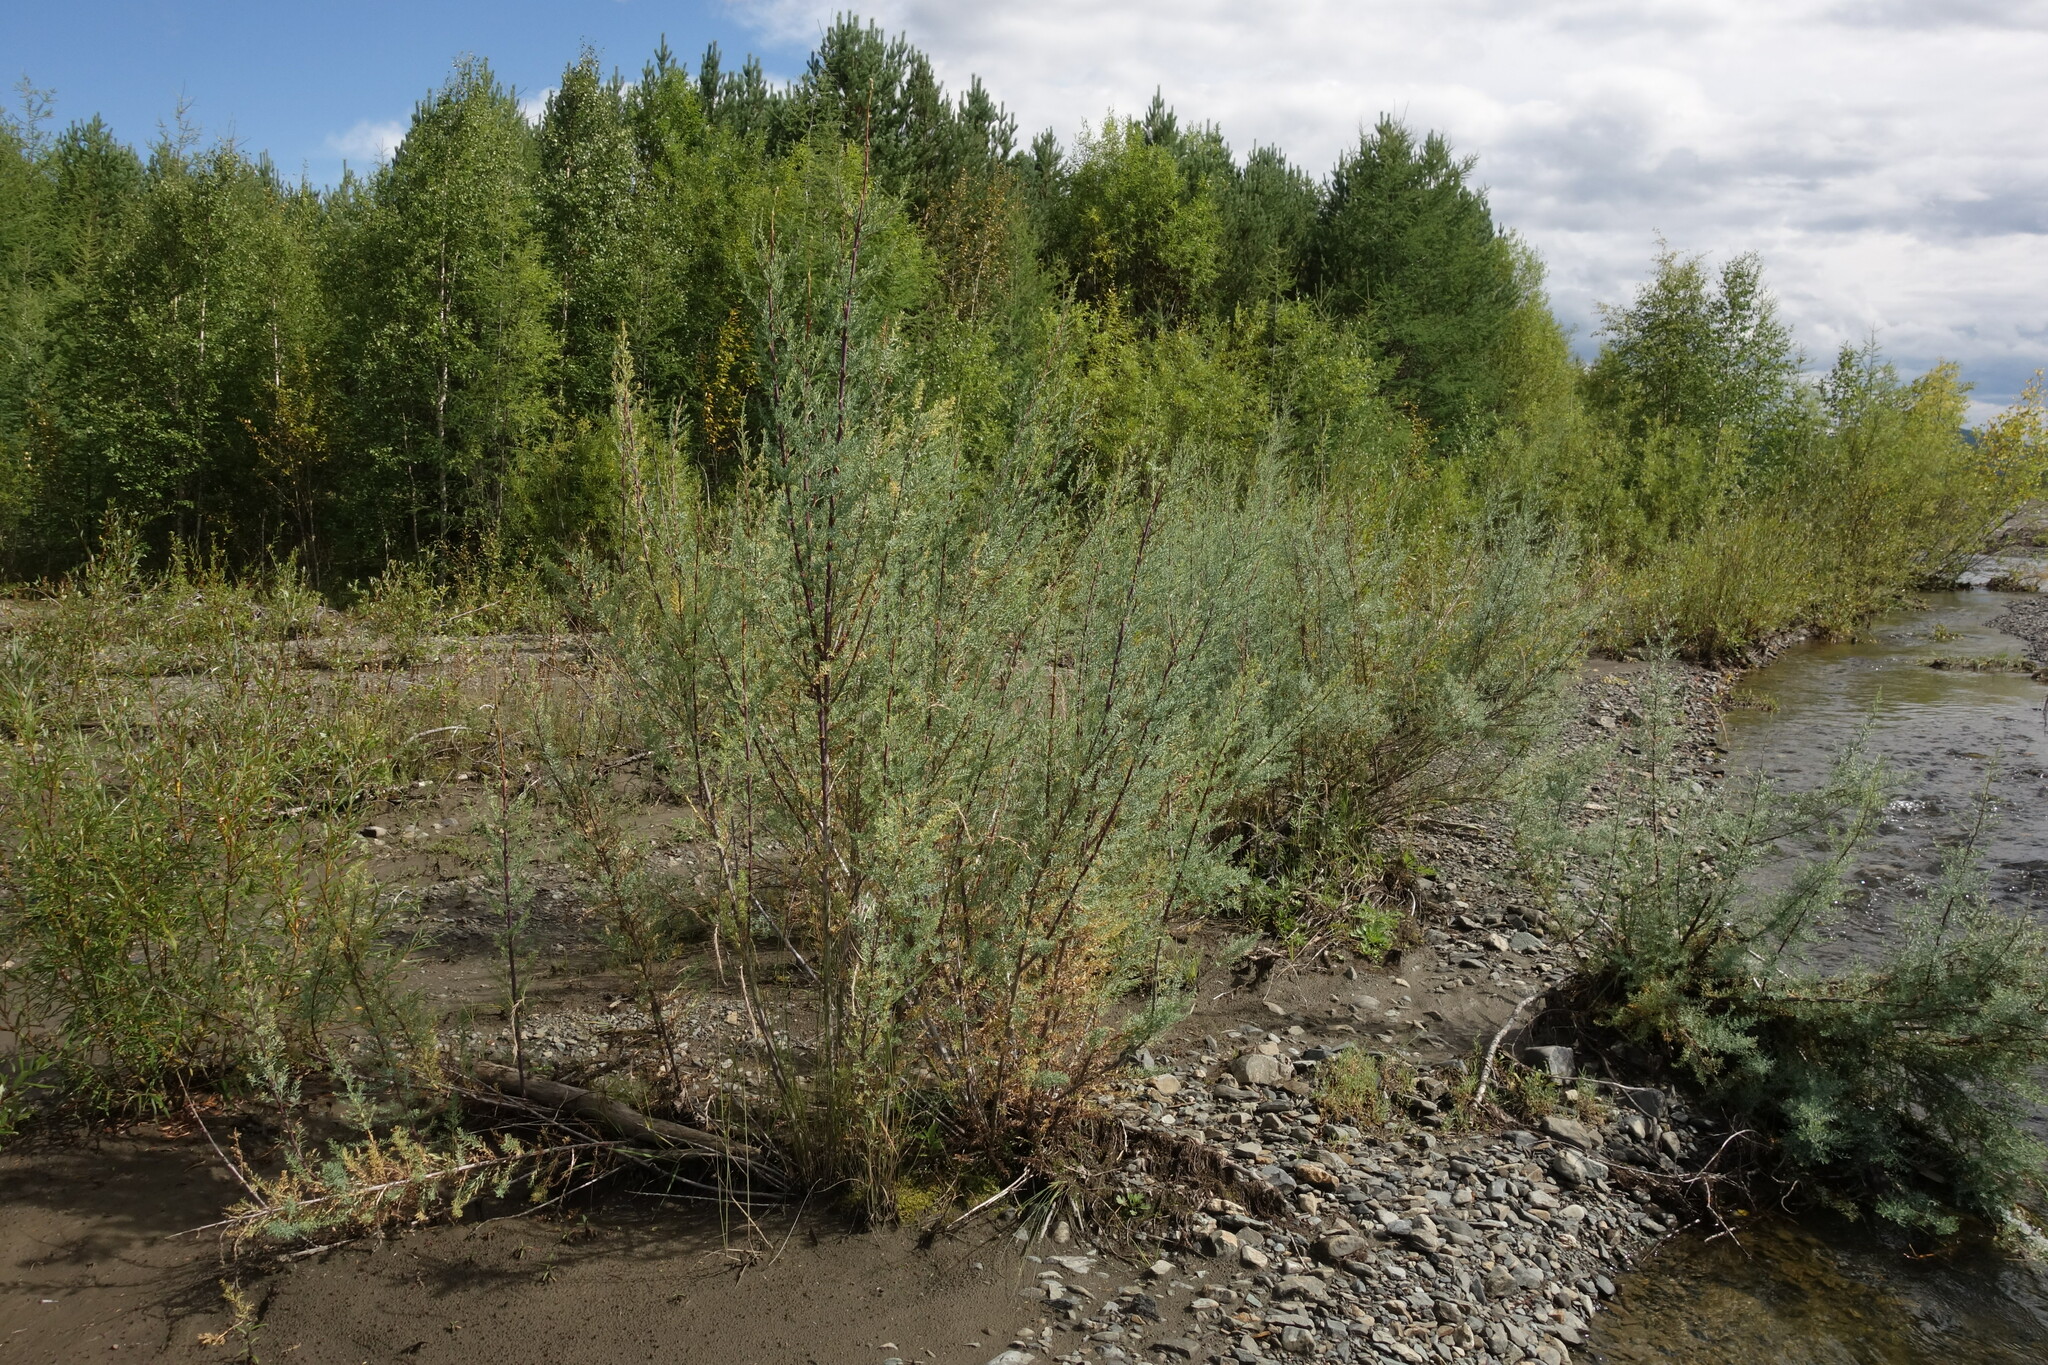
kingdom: Plantae
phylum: Tracheophyta
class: Magnoliopsida
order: Caryophyllales
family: Tamaricaceae
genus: Myricaria
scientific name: Myricaria longifolia
